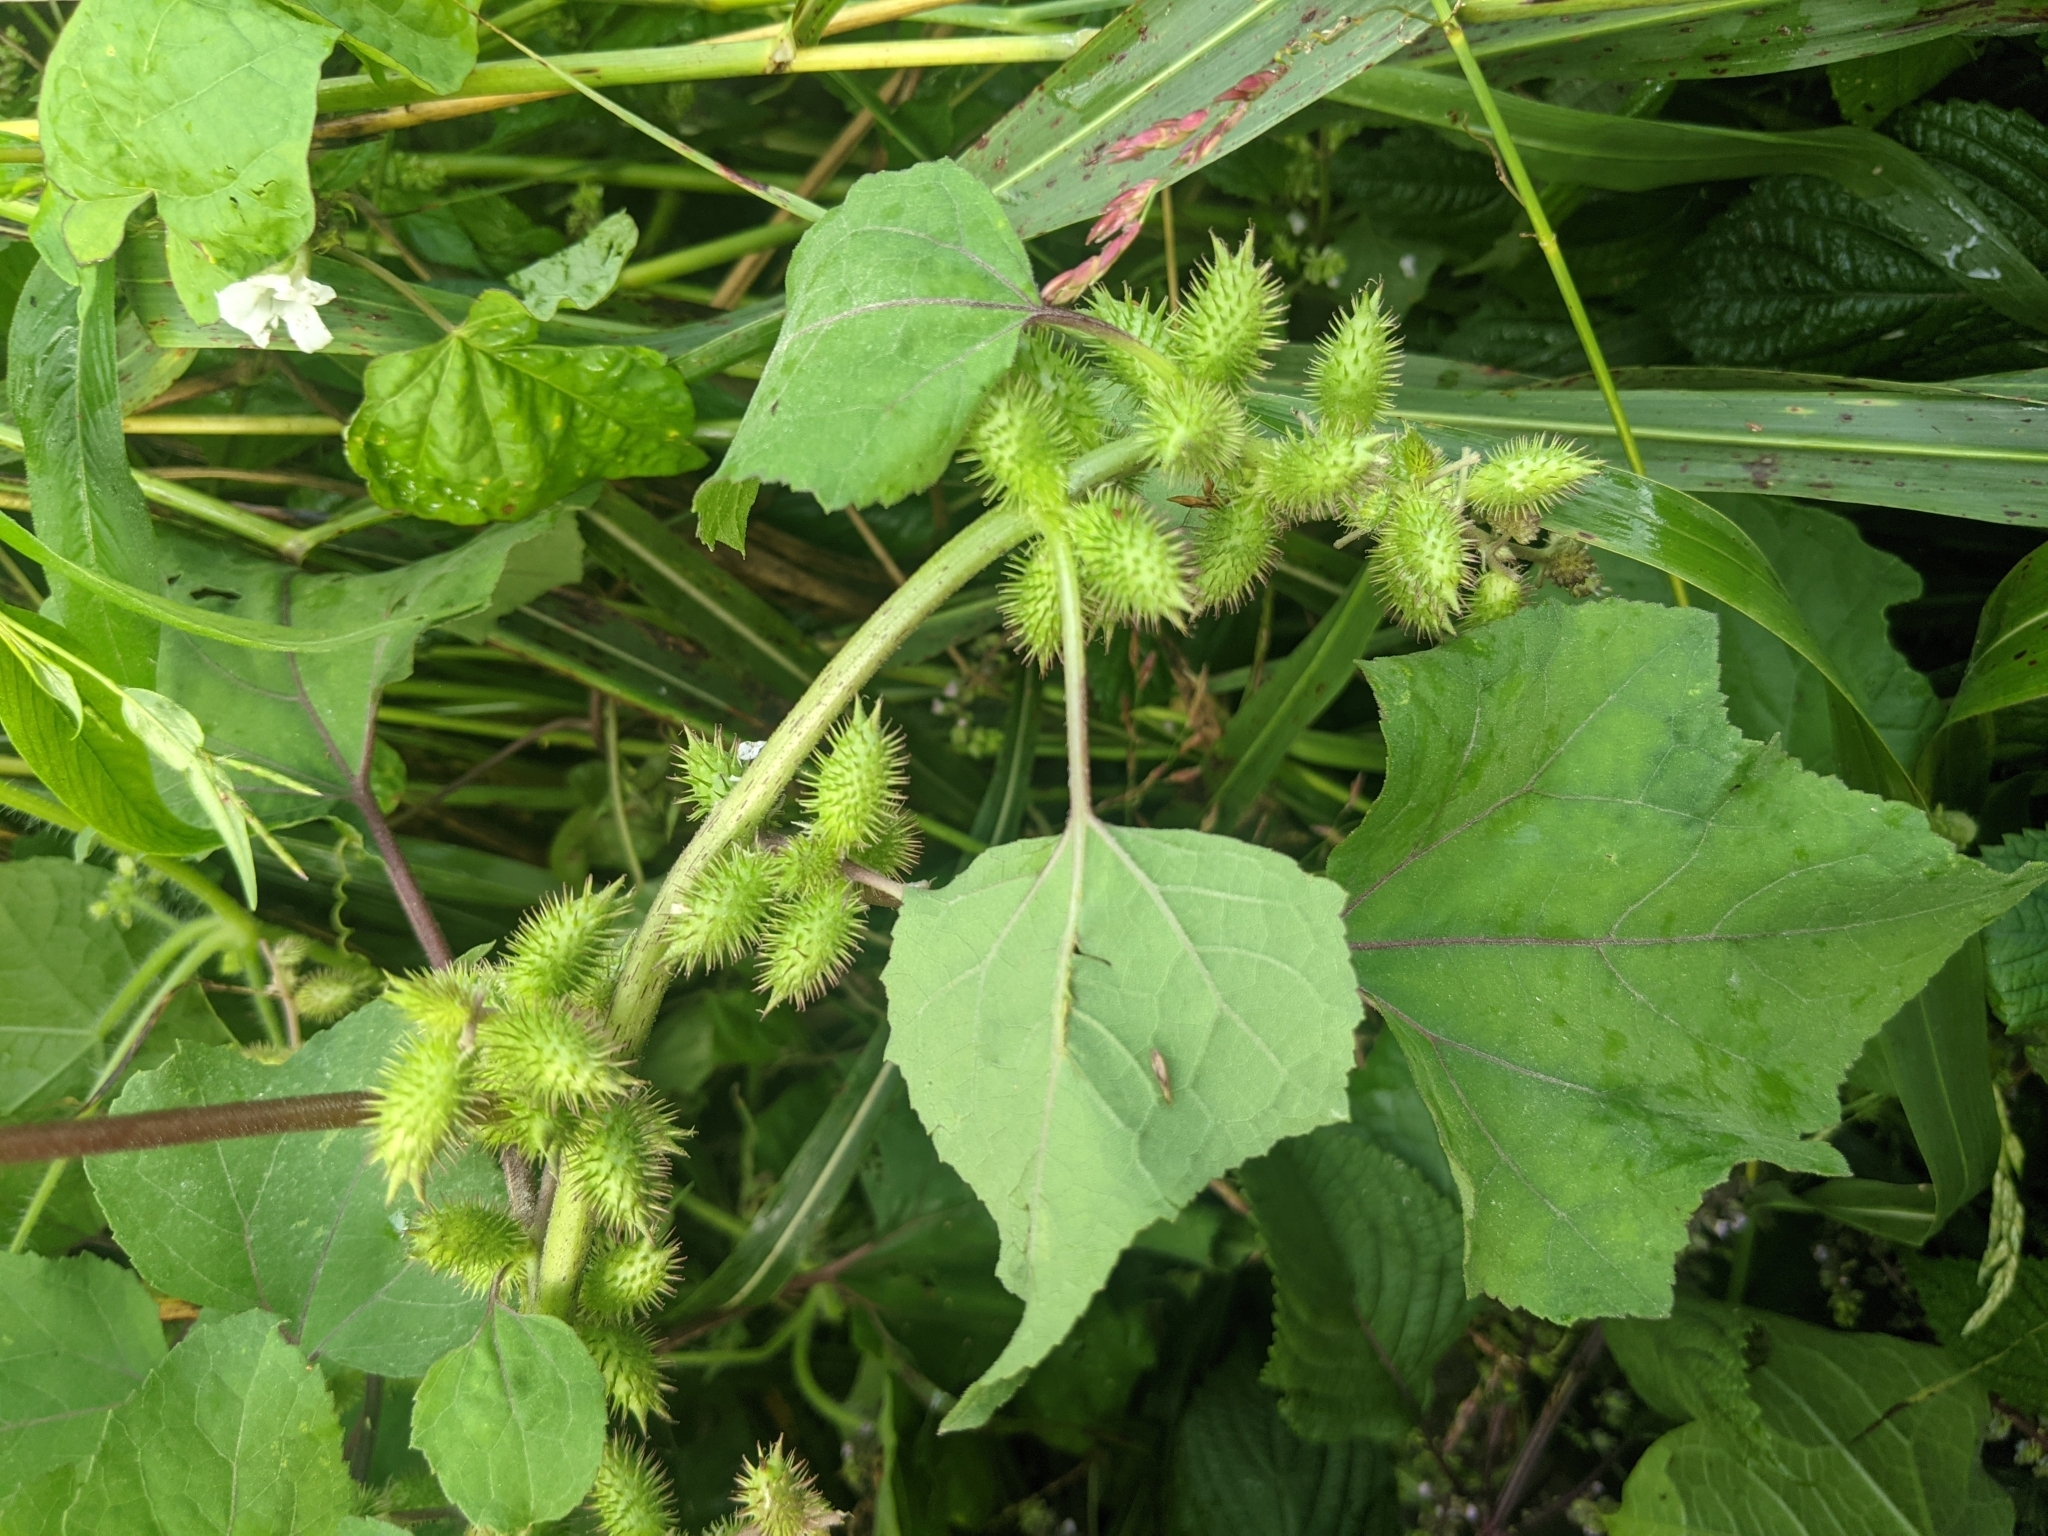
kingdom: Plantae
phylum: Tracheophyta
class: Magnoliopsida
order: Asterales
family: Asteraceae
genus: Xanthium
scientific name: Xanthium strumarium
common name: Rough cocklebur
